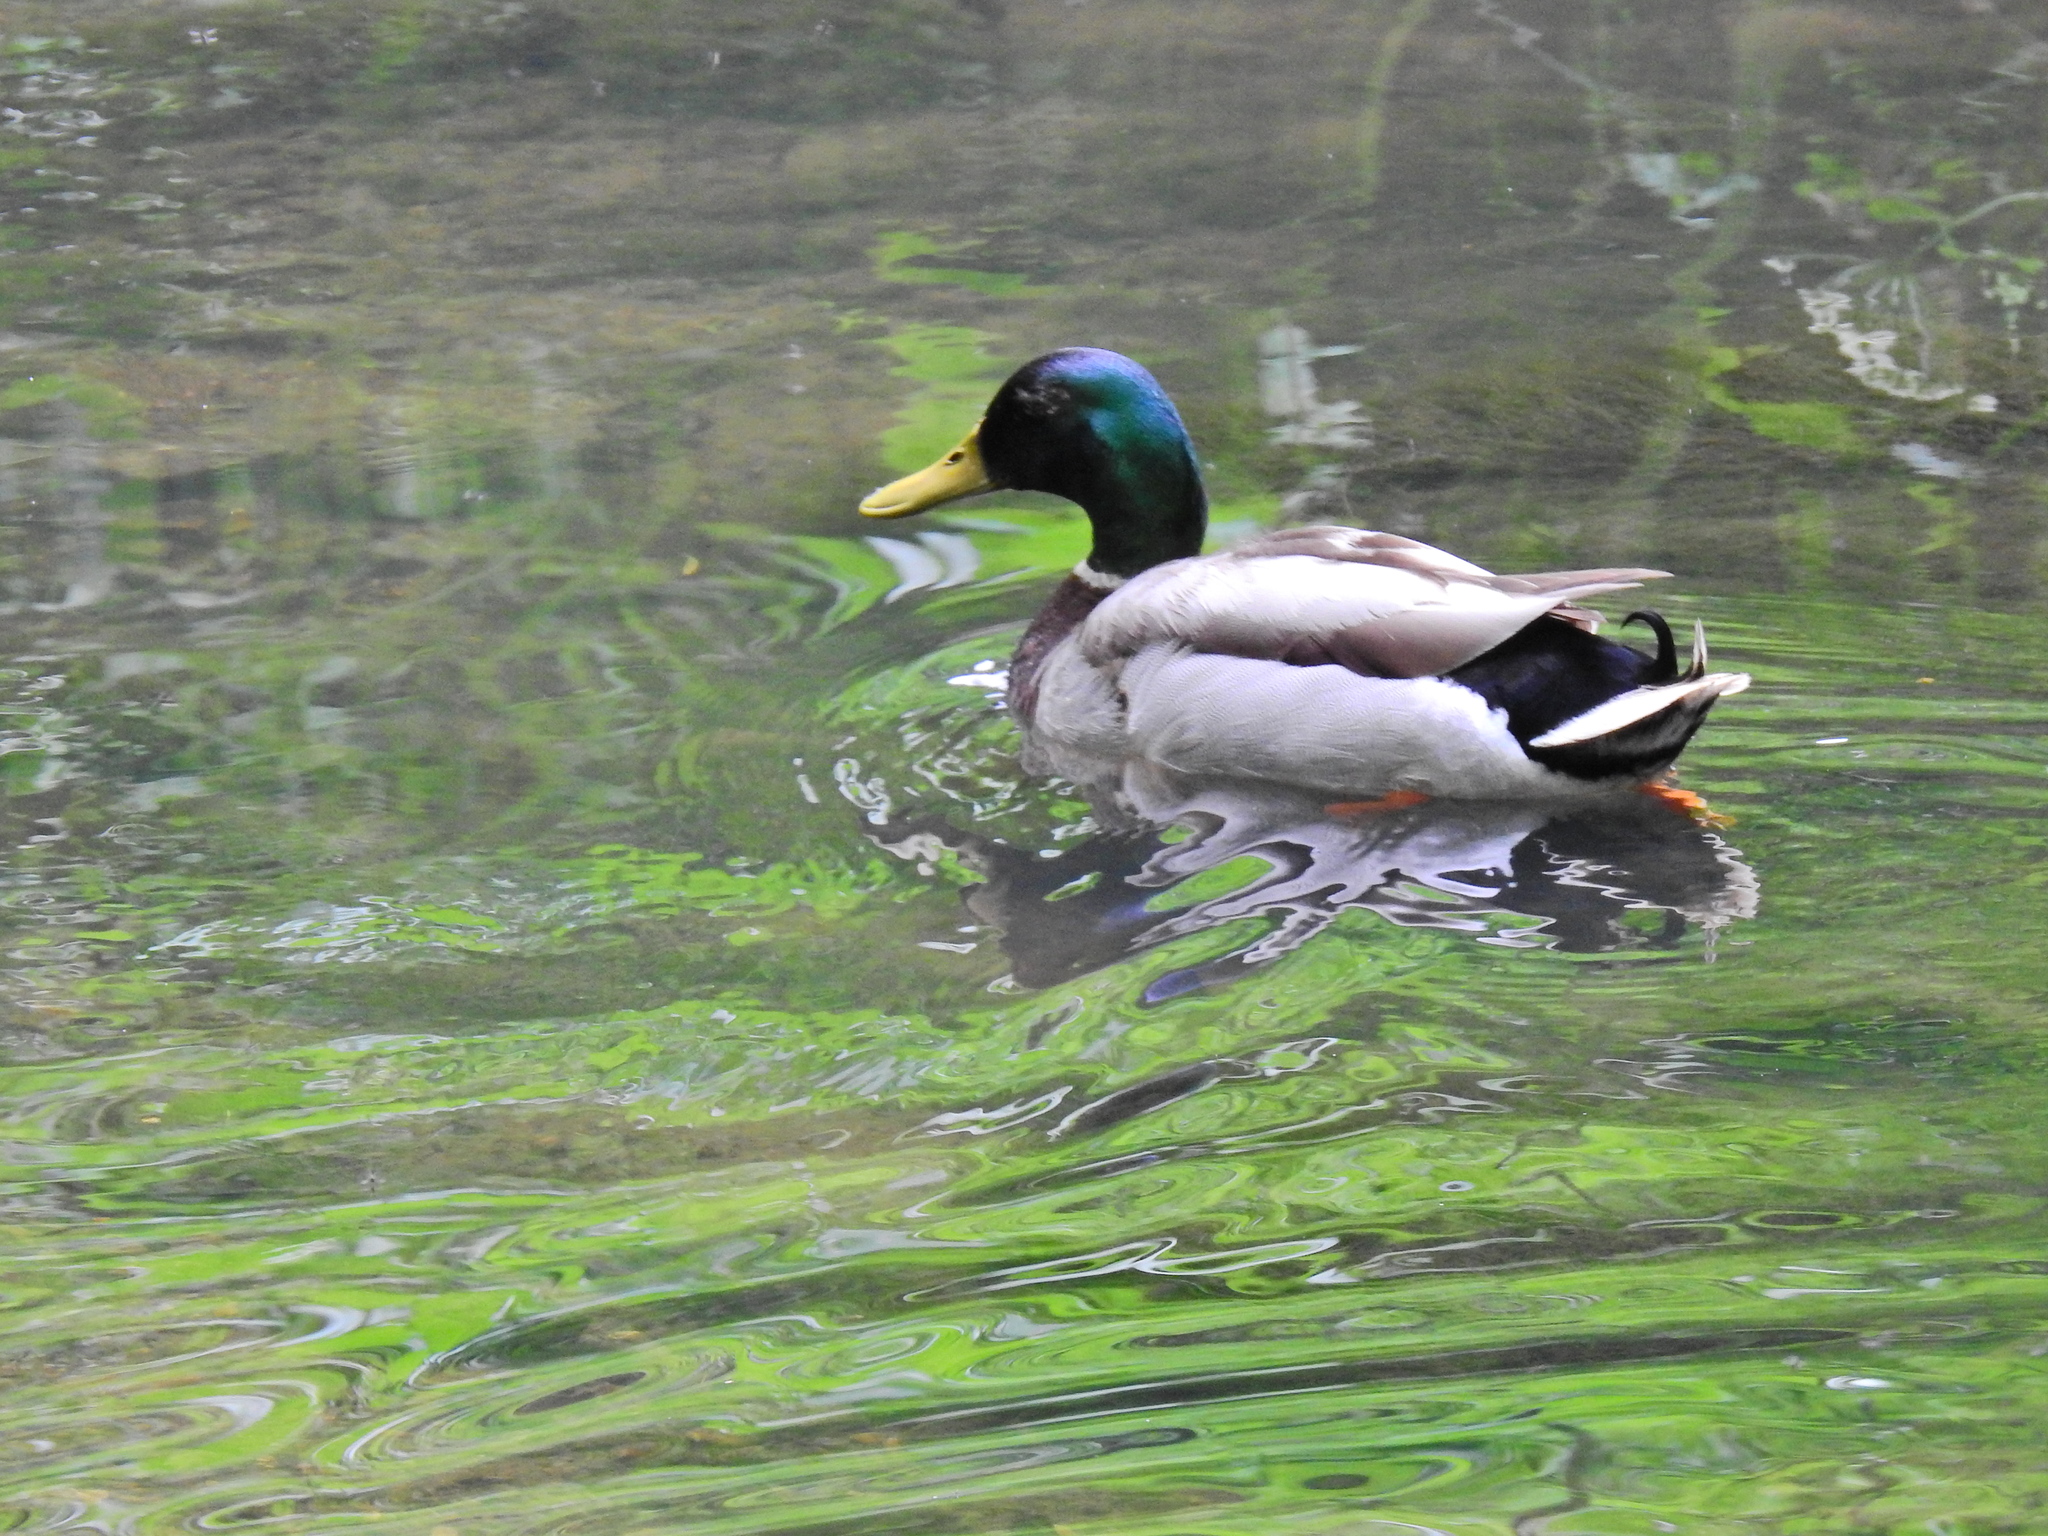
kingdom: Animalia
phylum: Chordata
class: Aves
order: Anseriformes
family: Anatidae
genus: Anas
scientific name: Anas platyrhynchos
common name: Mallard
